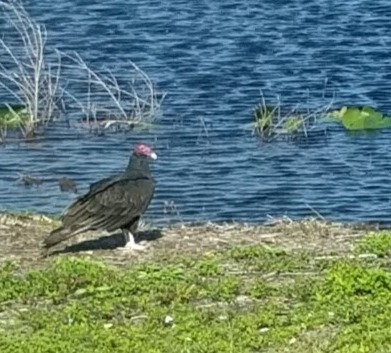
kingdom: Animalia
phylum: Chordata
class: Aves
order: Accipitriformes
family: Cathartidae
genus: Cathartes
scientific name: Cathartes aura
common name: Turkey vulture
